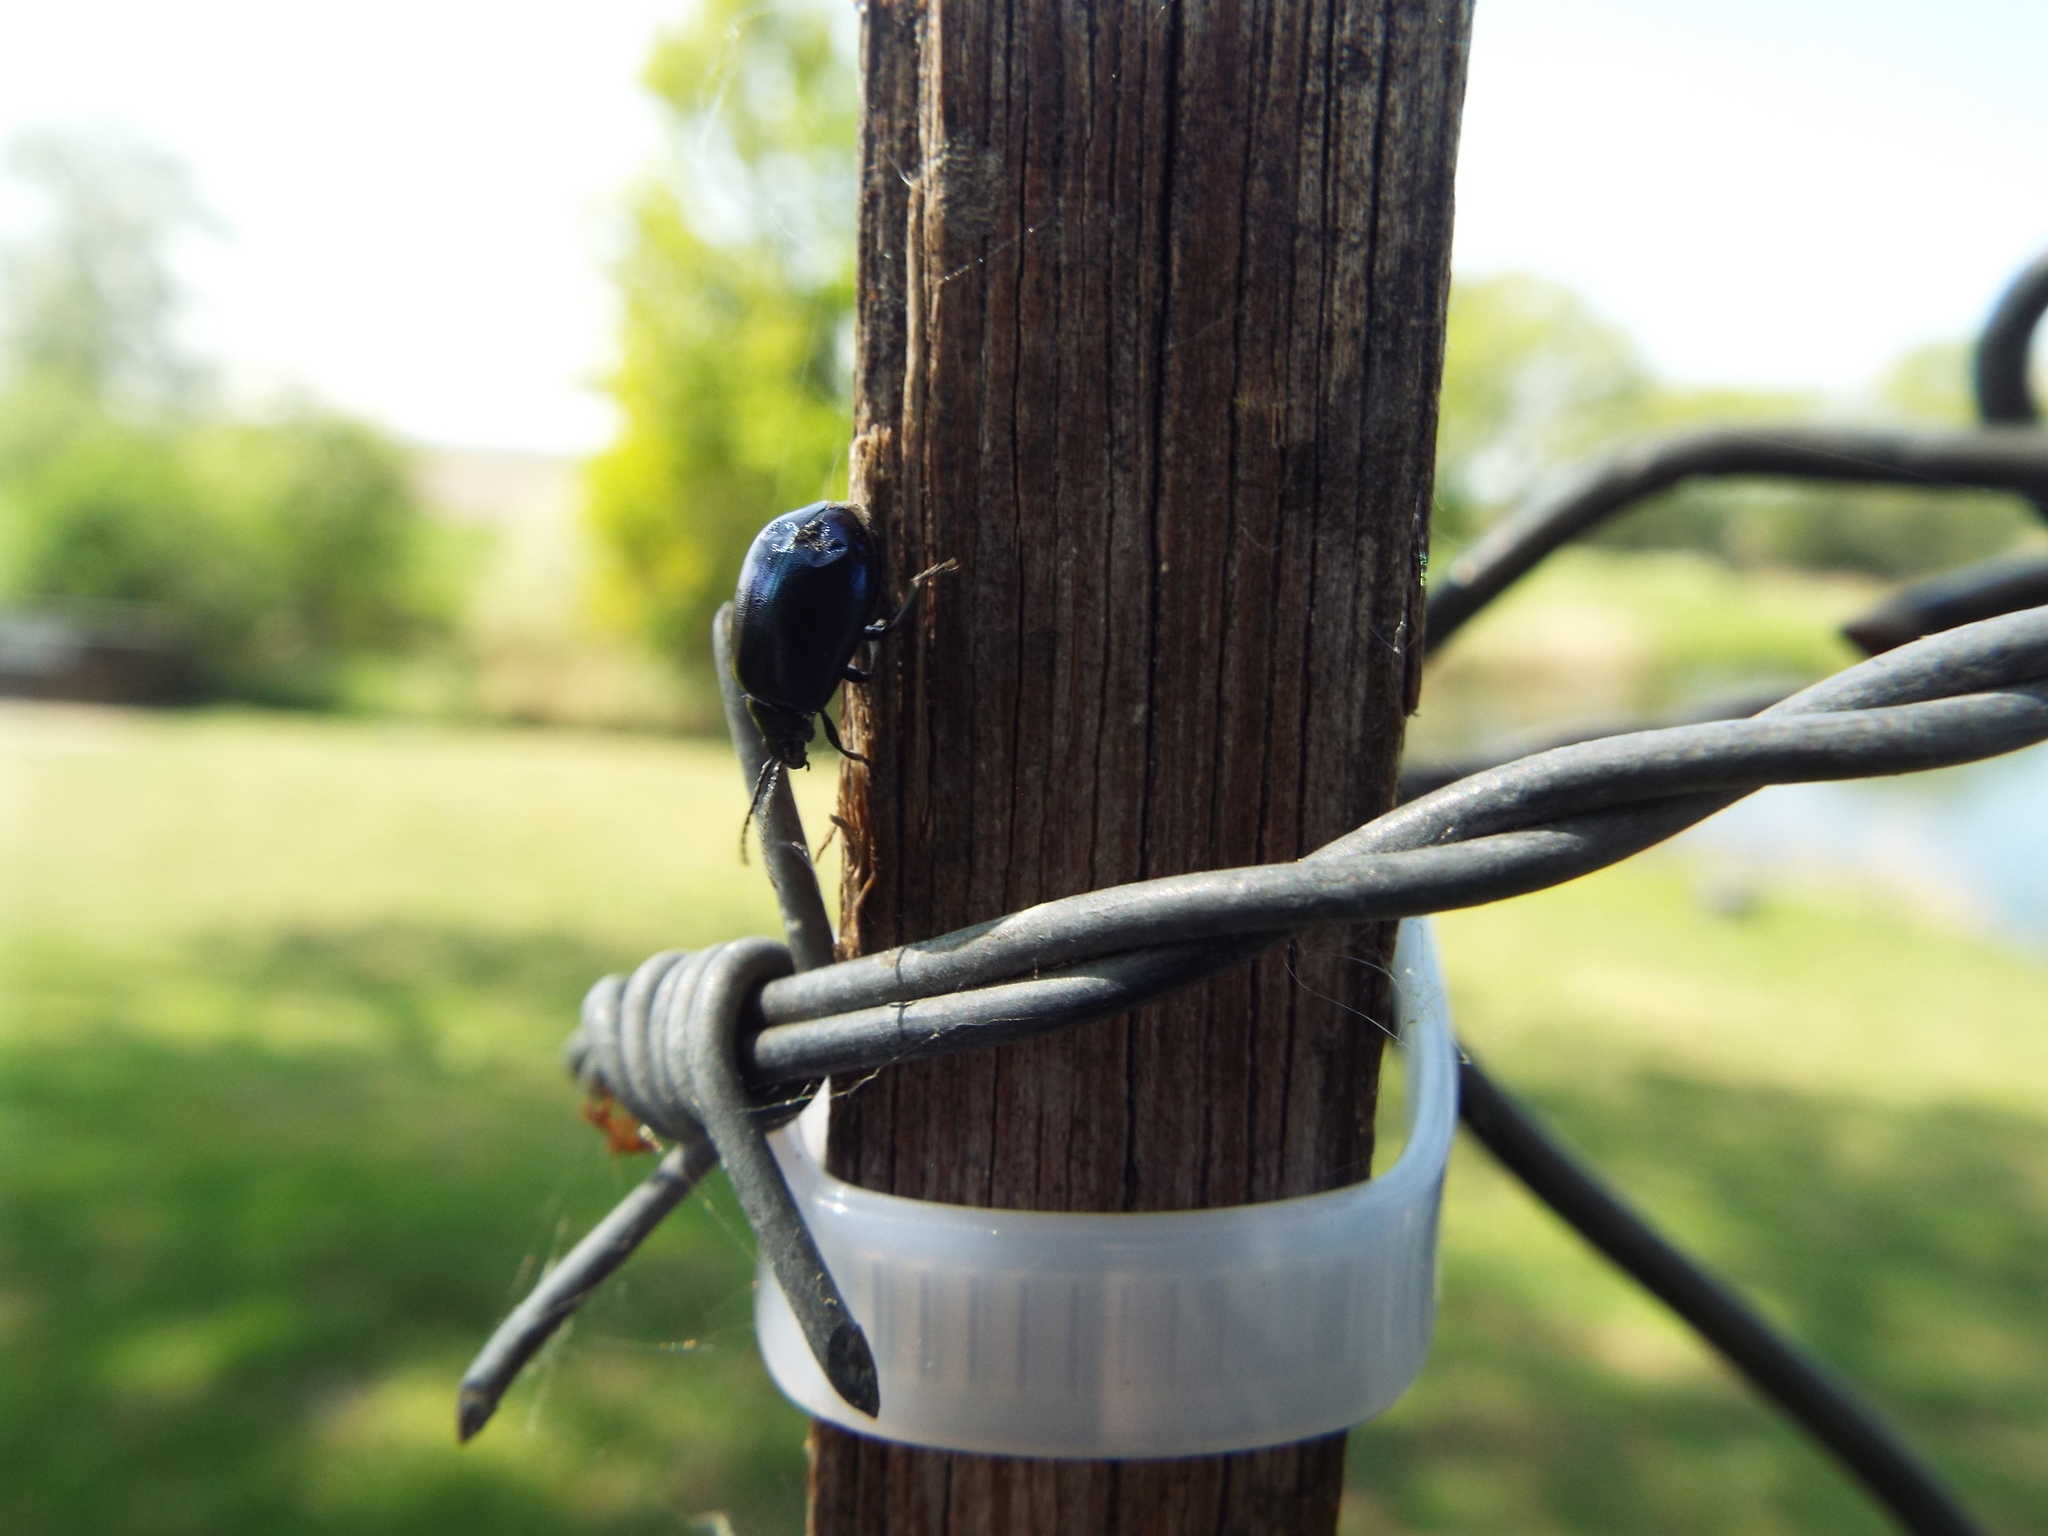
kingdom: Animalia
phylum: Arthropoda
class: Insecta
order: Coleoptera
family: Chrysomelidae
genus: Agelastica
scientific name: Agelastica alni
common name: Alder leaf beetle
